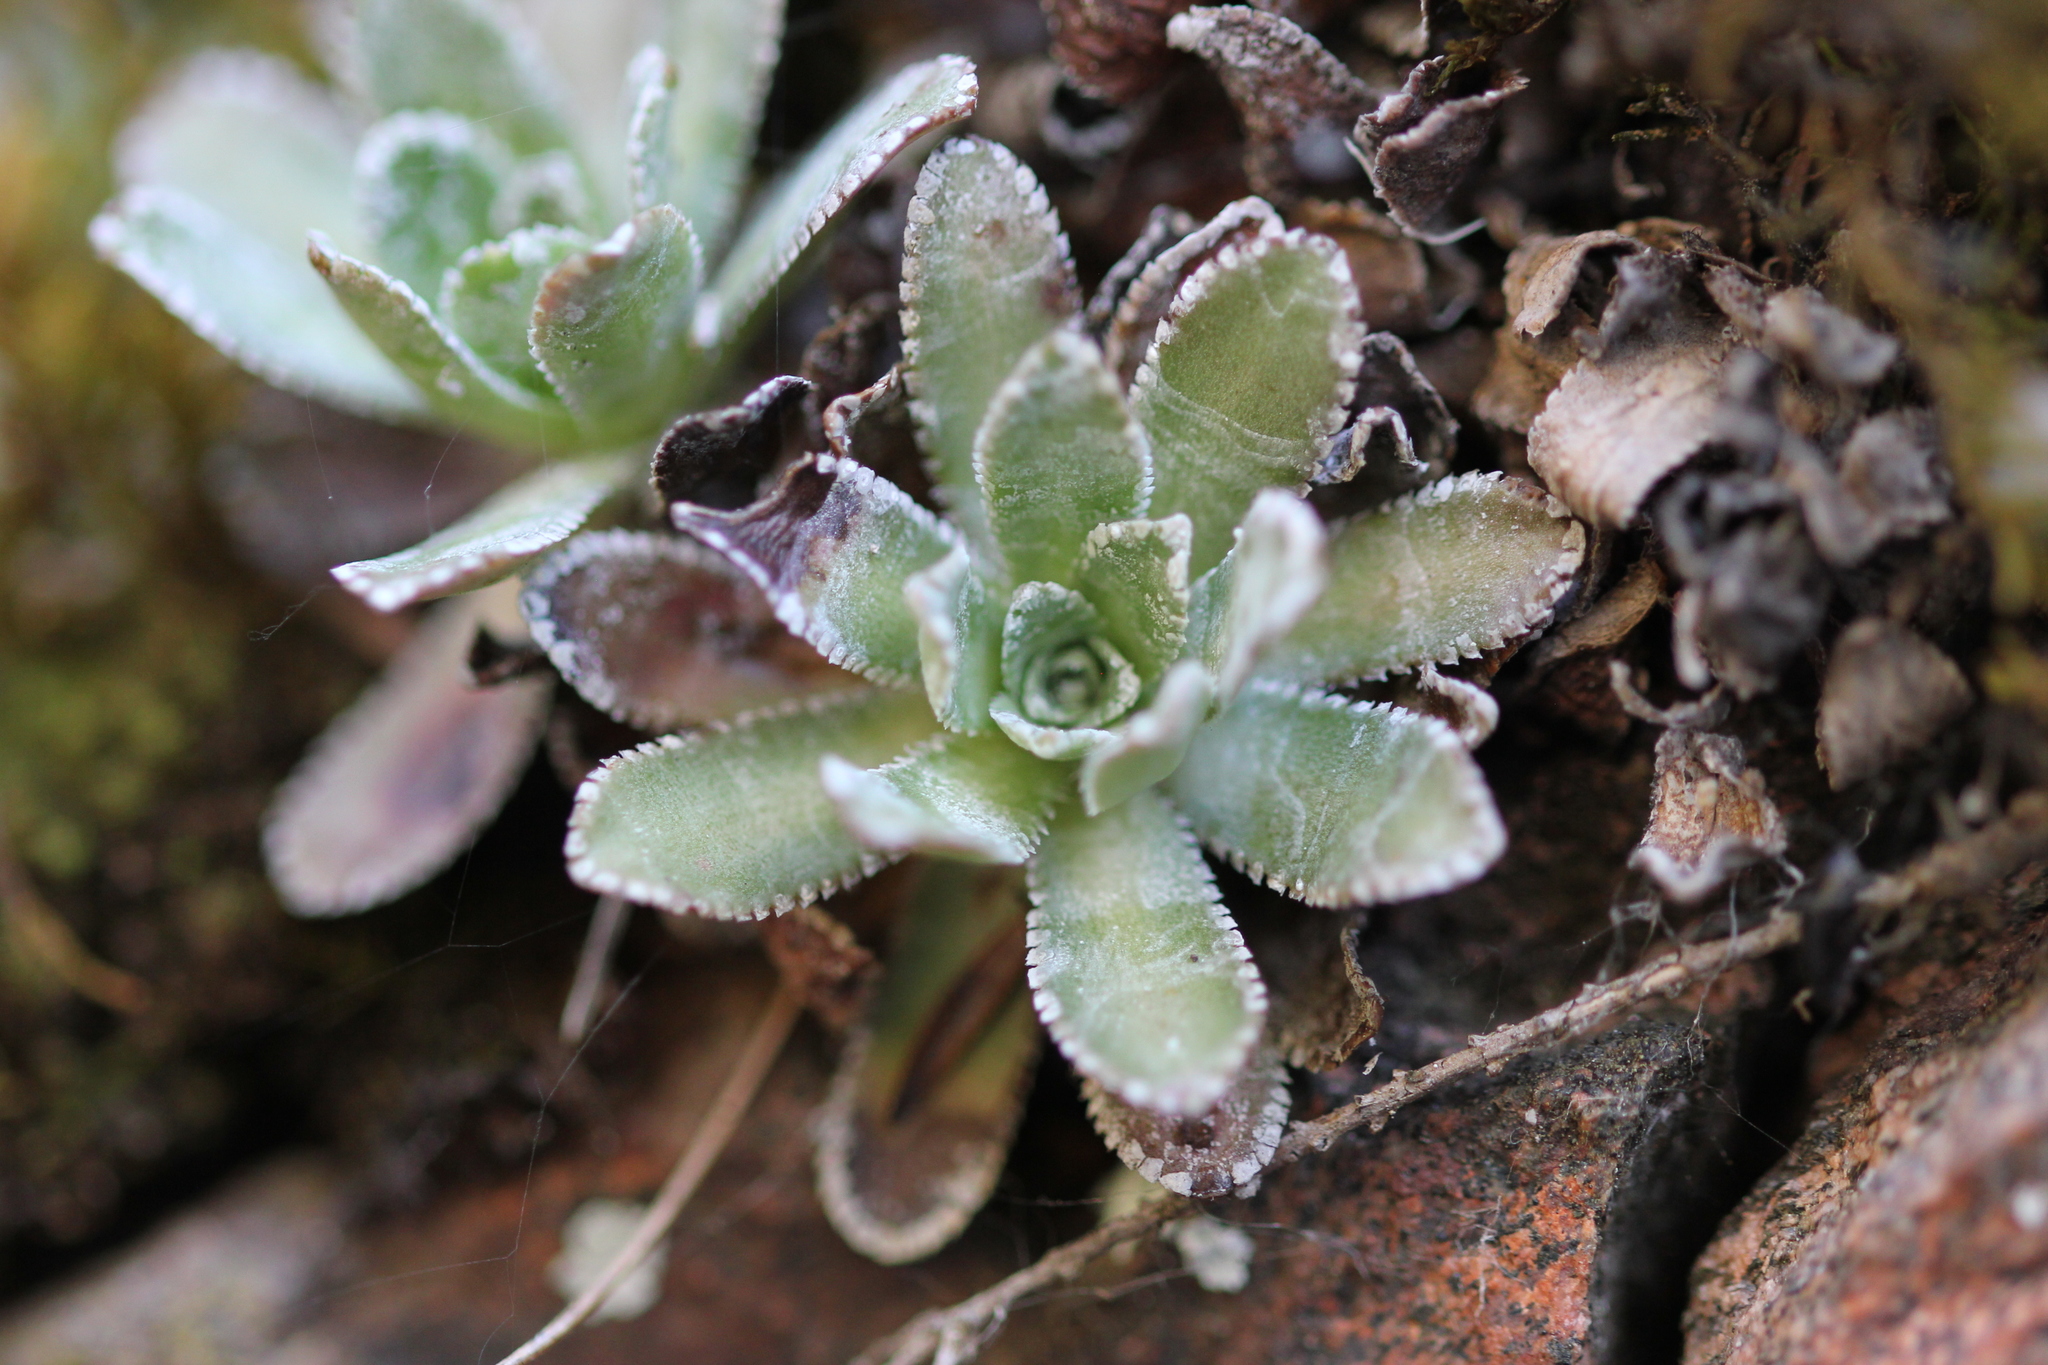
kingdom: Plantae
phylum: Tracheophyta
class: Magnoliopsida
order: Saxifragales
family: Saxifragaceae
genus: Saxifraga
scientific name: Saxifraga paniculata
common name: Livelong saxifrage
